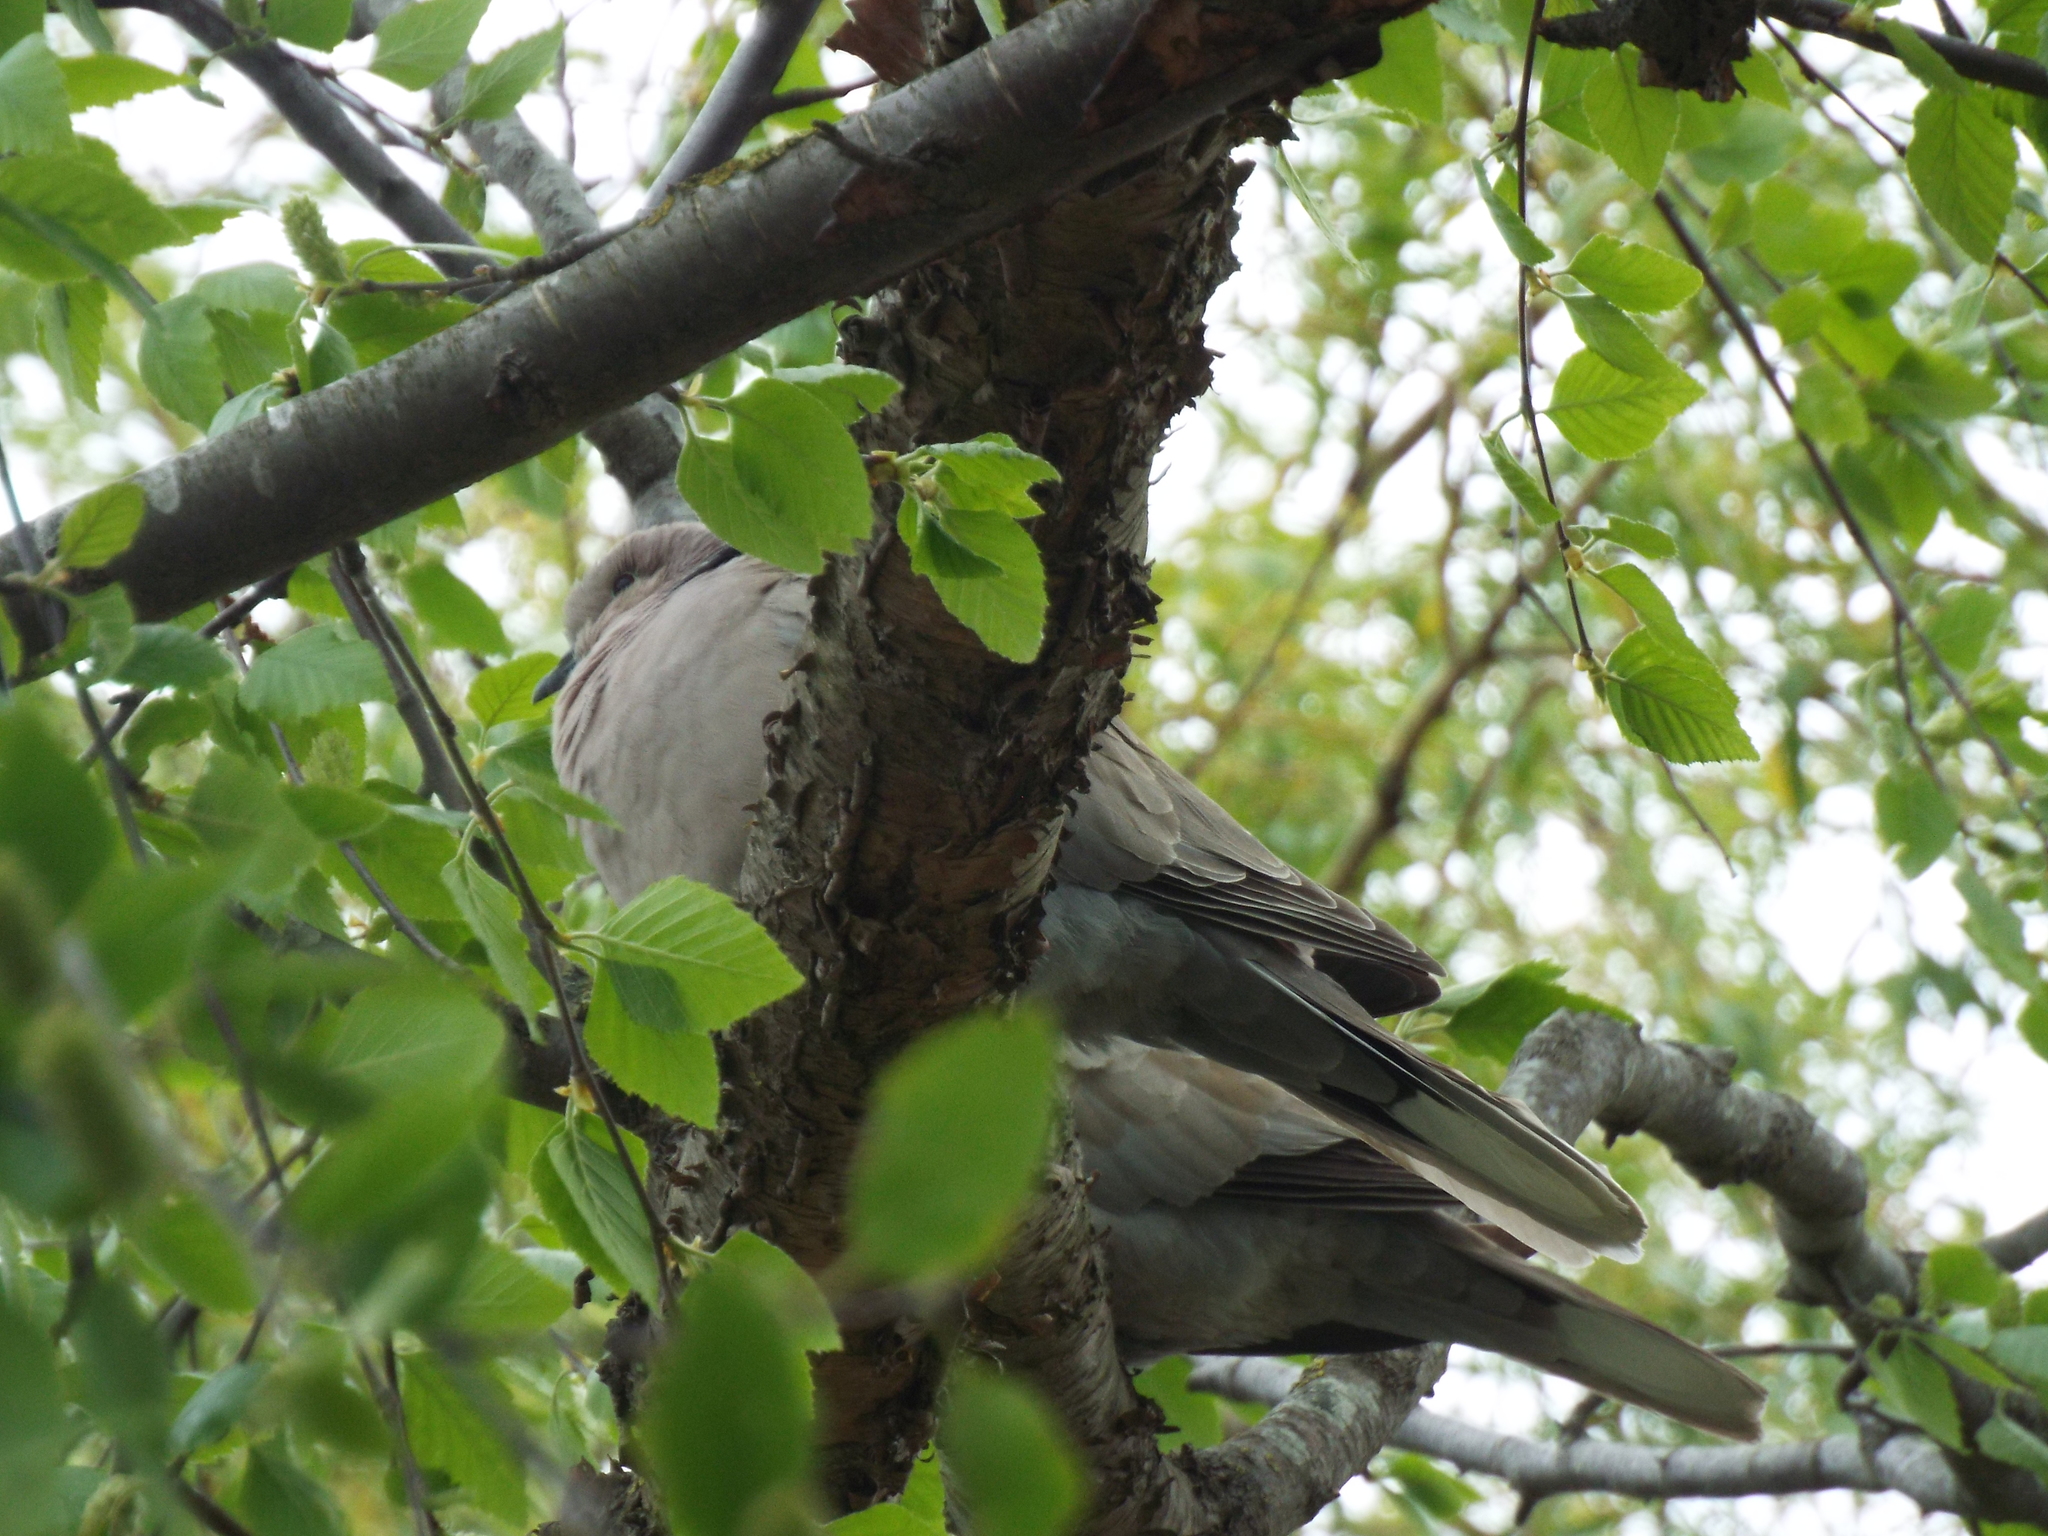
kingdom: Animalia
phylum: Chordata
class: Aves
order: Columbiformes
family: Columbidae
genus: Streptopelia
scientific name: Streptopelia decaocto
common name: Eurasian collared dove
